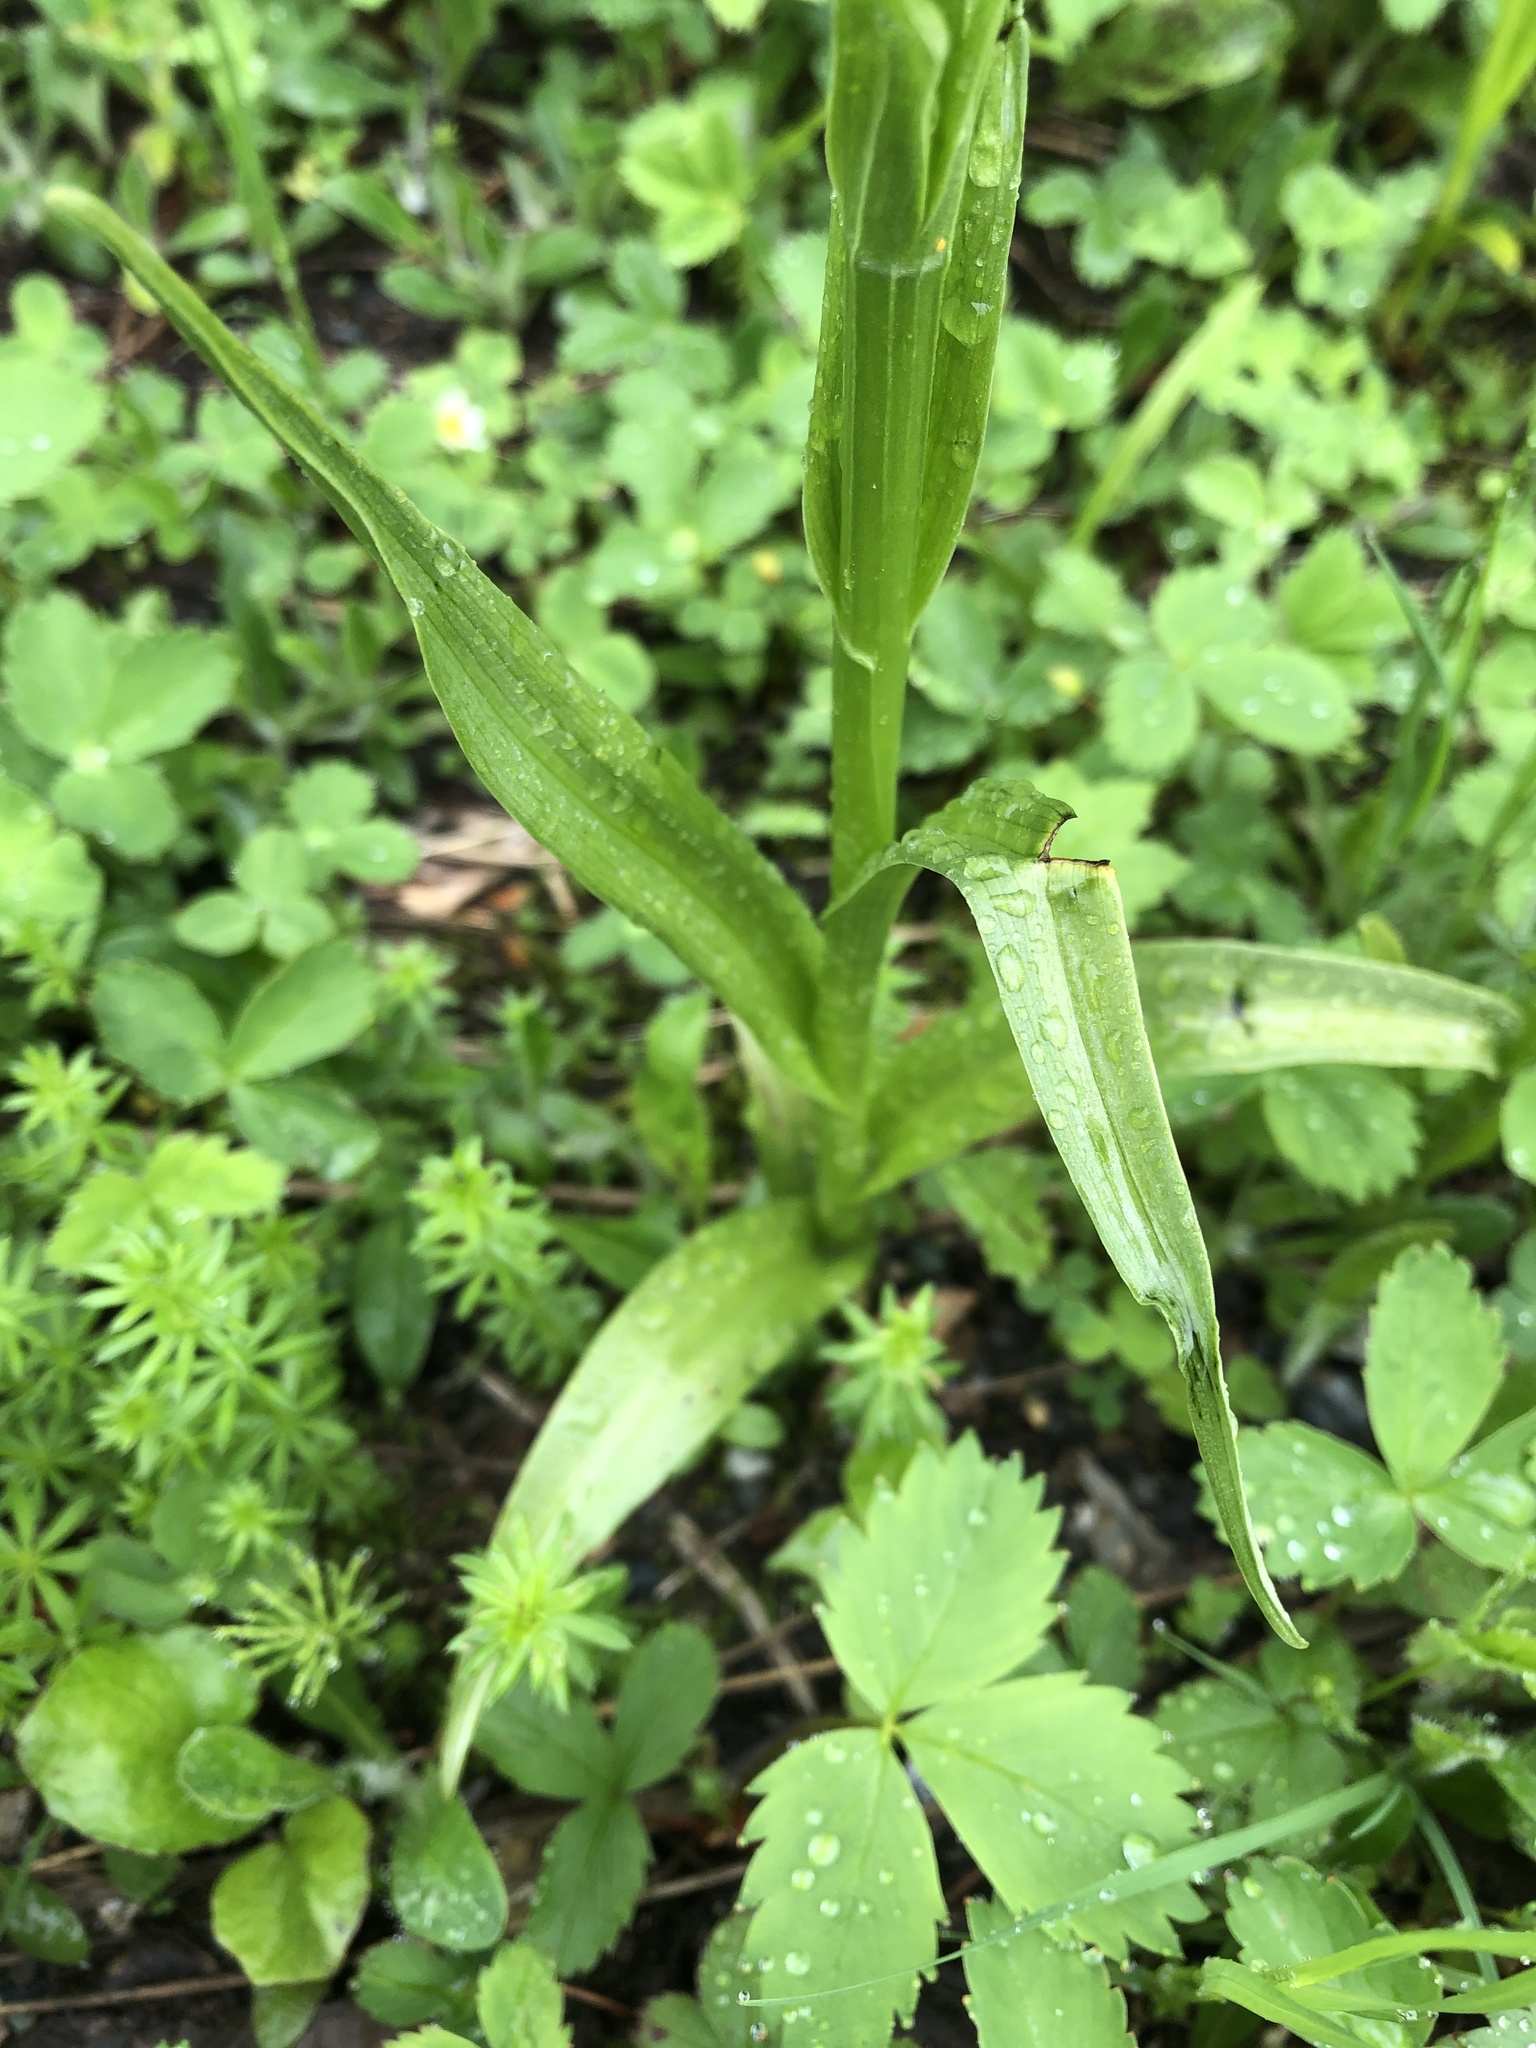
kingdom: Plantae
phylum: Tracheophyta
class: Liliopsida
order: Asparagales
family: Orchidaceae
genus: Platanthera
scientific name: Platanthera dilatata
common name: Bog candles
